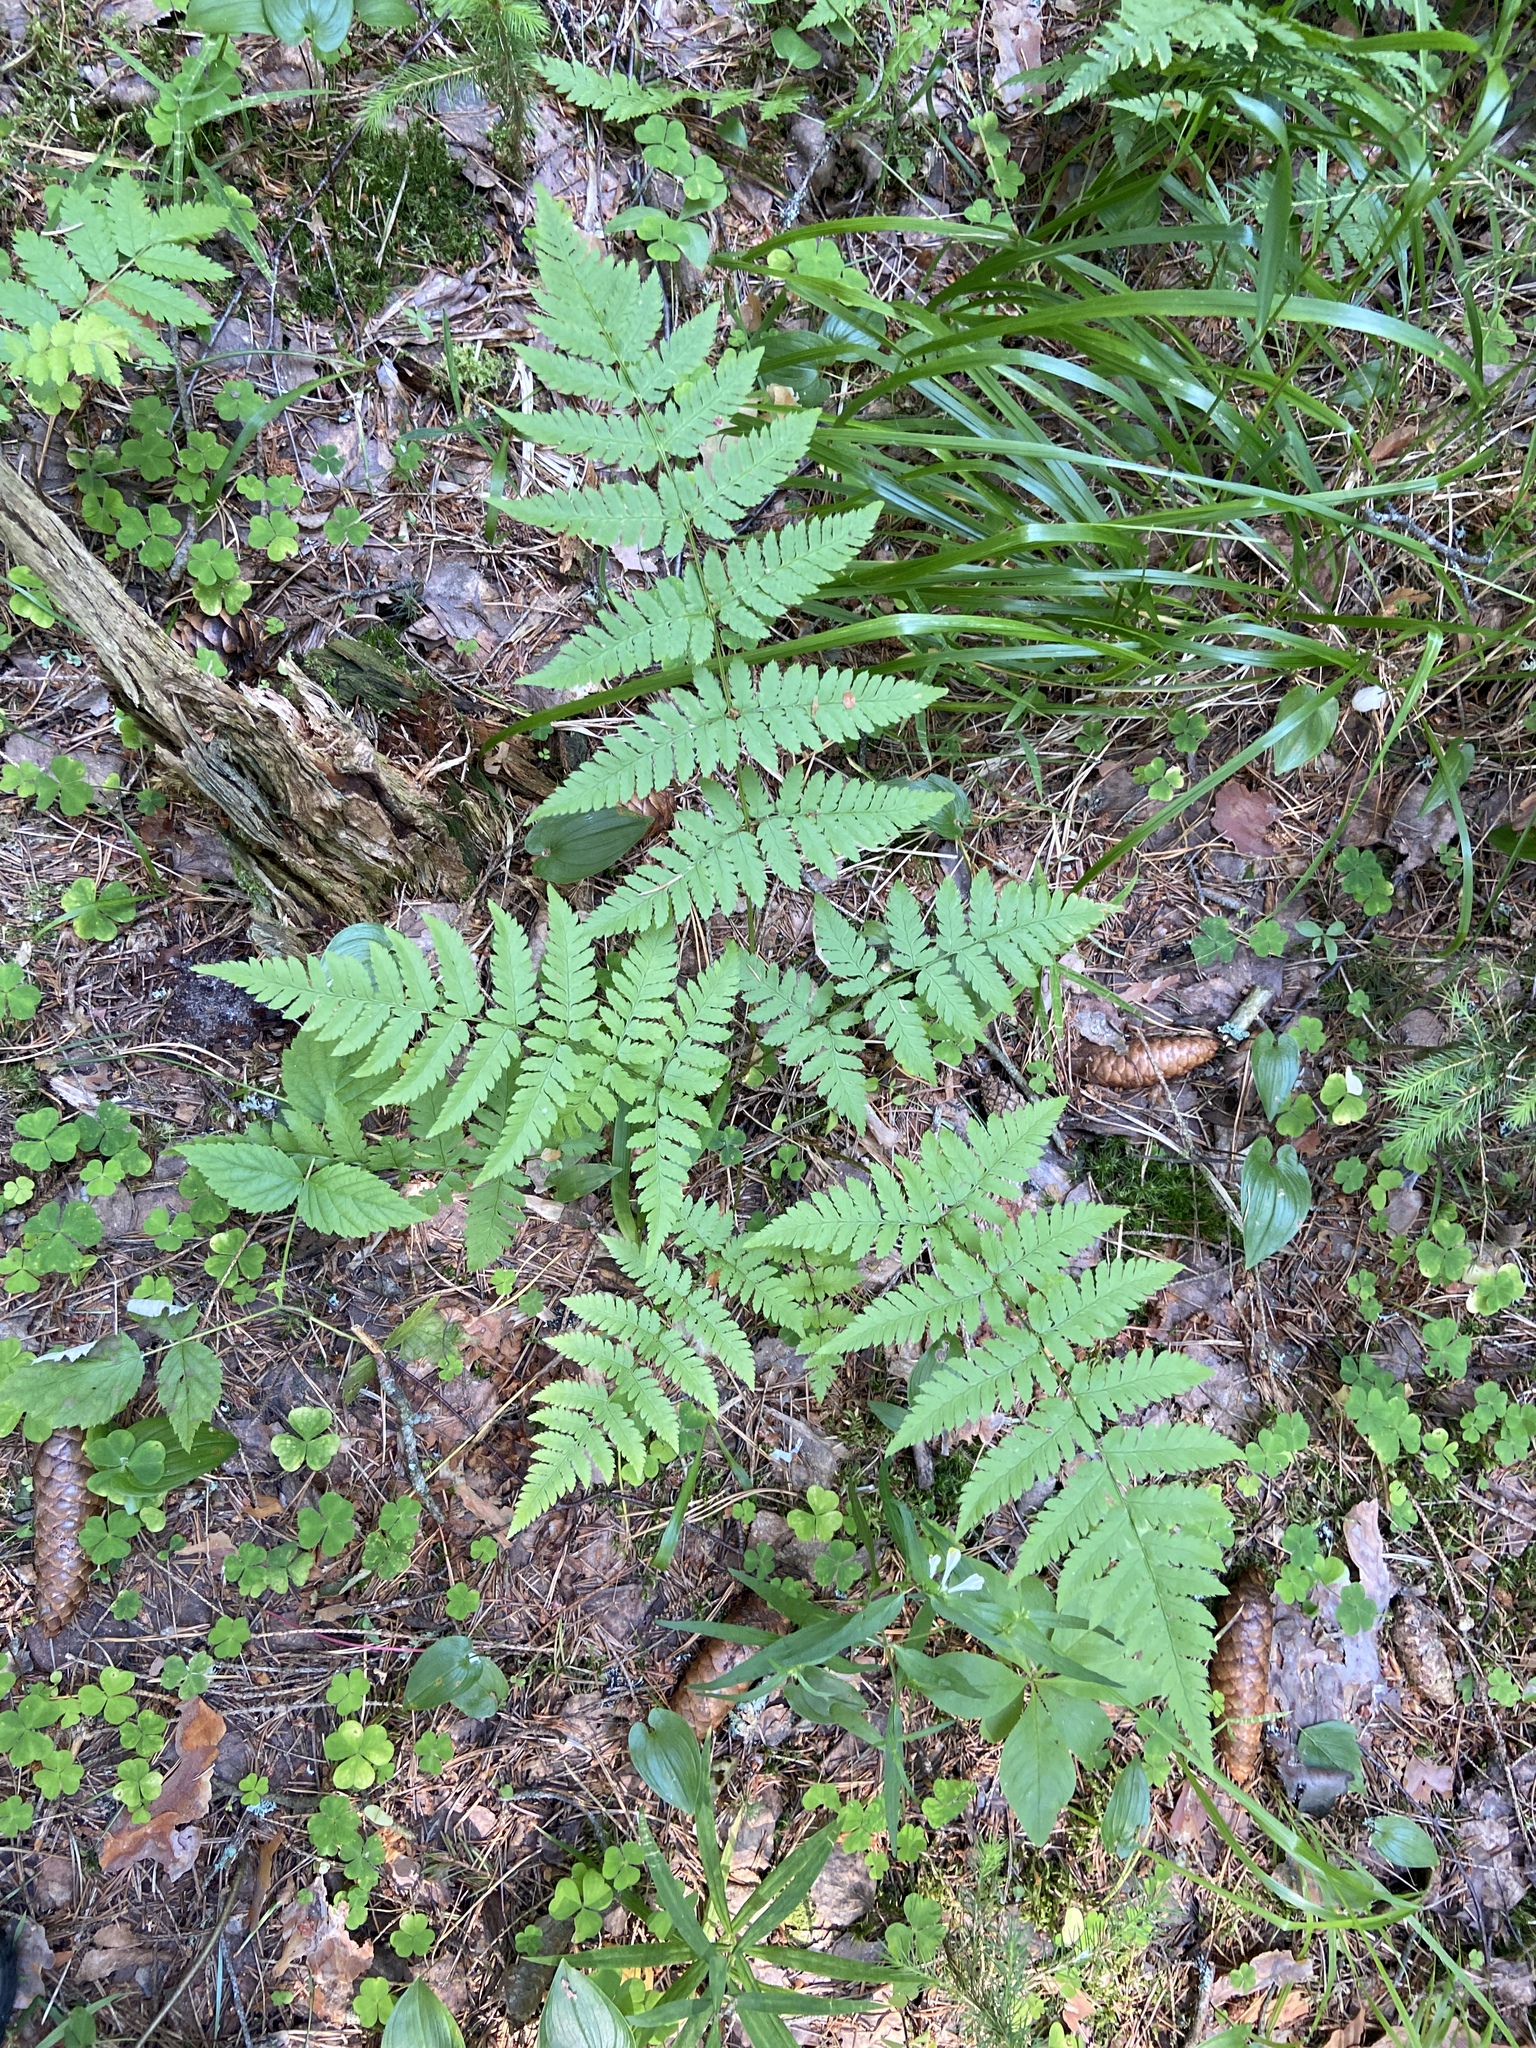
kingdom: Plantae
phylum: Tracheophyta
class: Polypodiopsida
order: Polypodiales
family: Dryopteridaceae
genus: Dryopteris
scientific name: Dryopteris carthusiana
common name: Narrow buckler-fern
